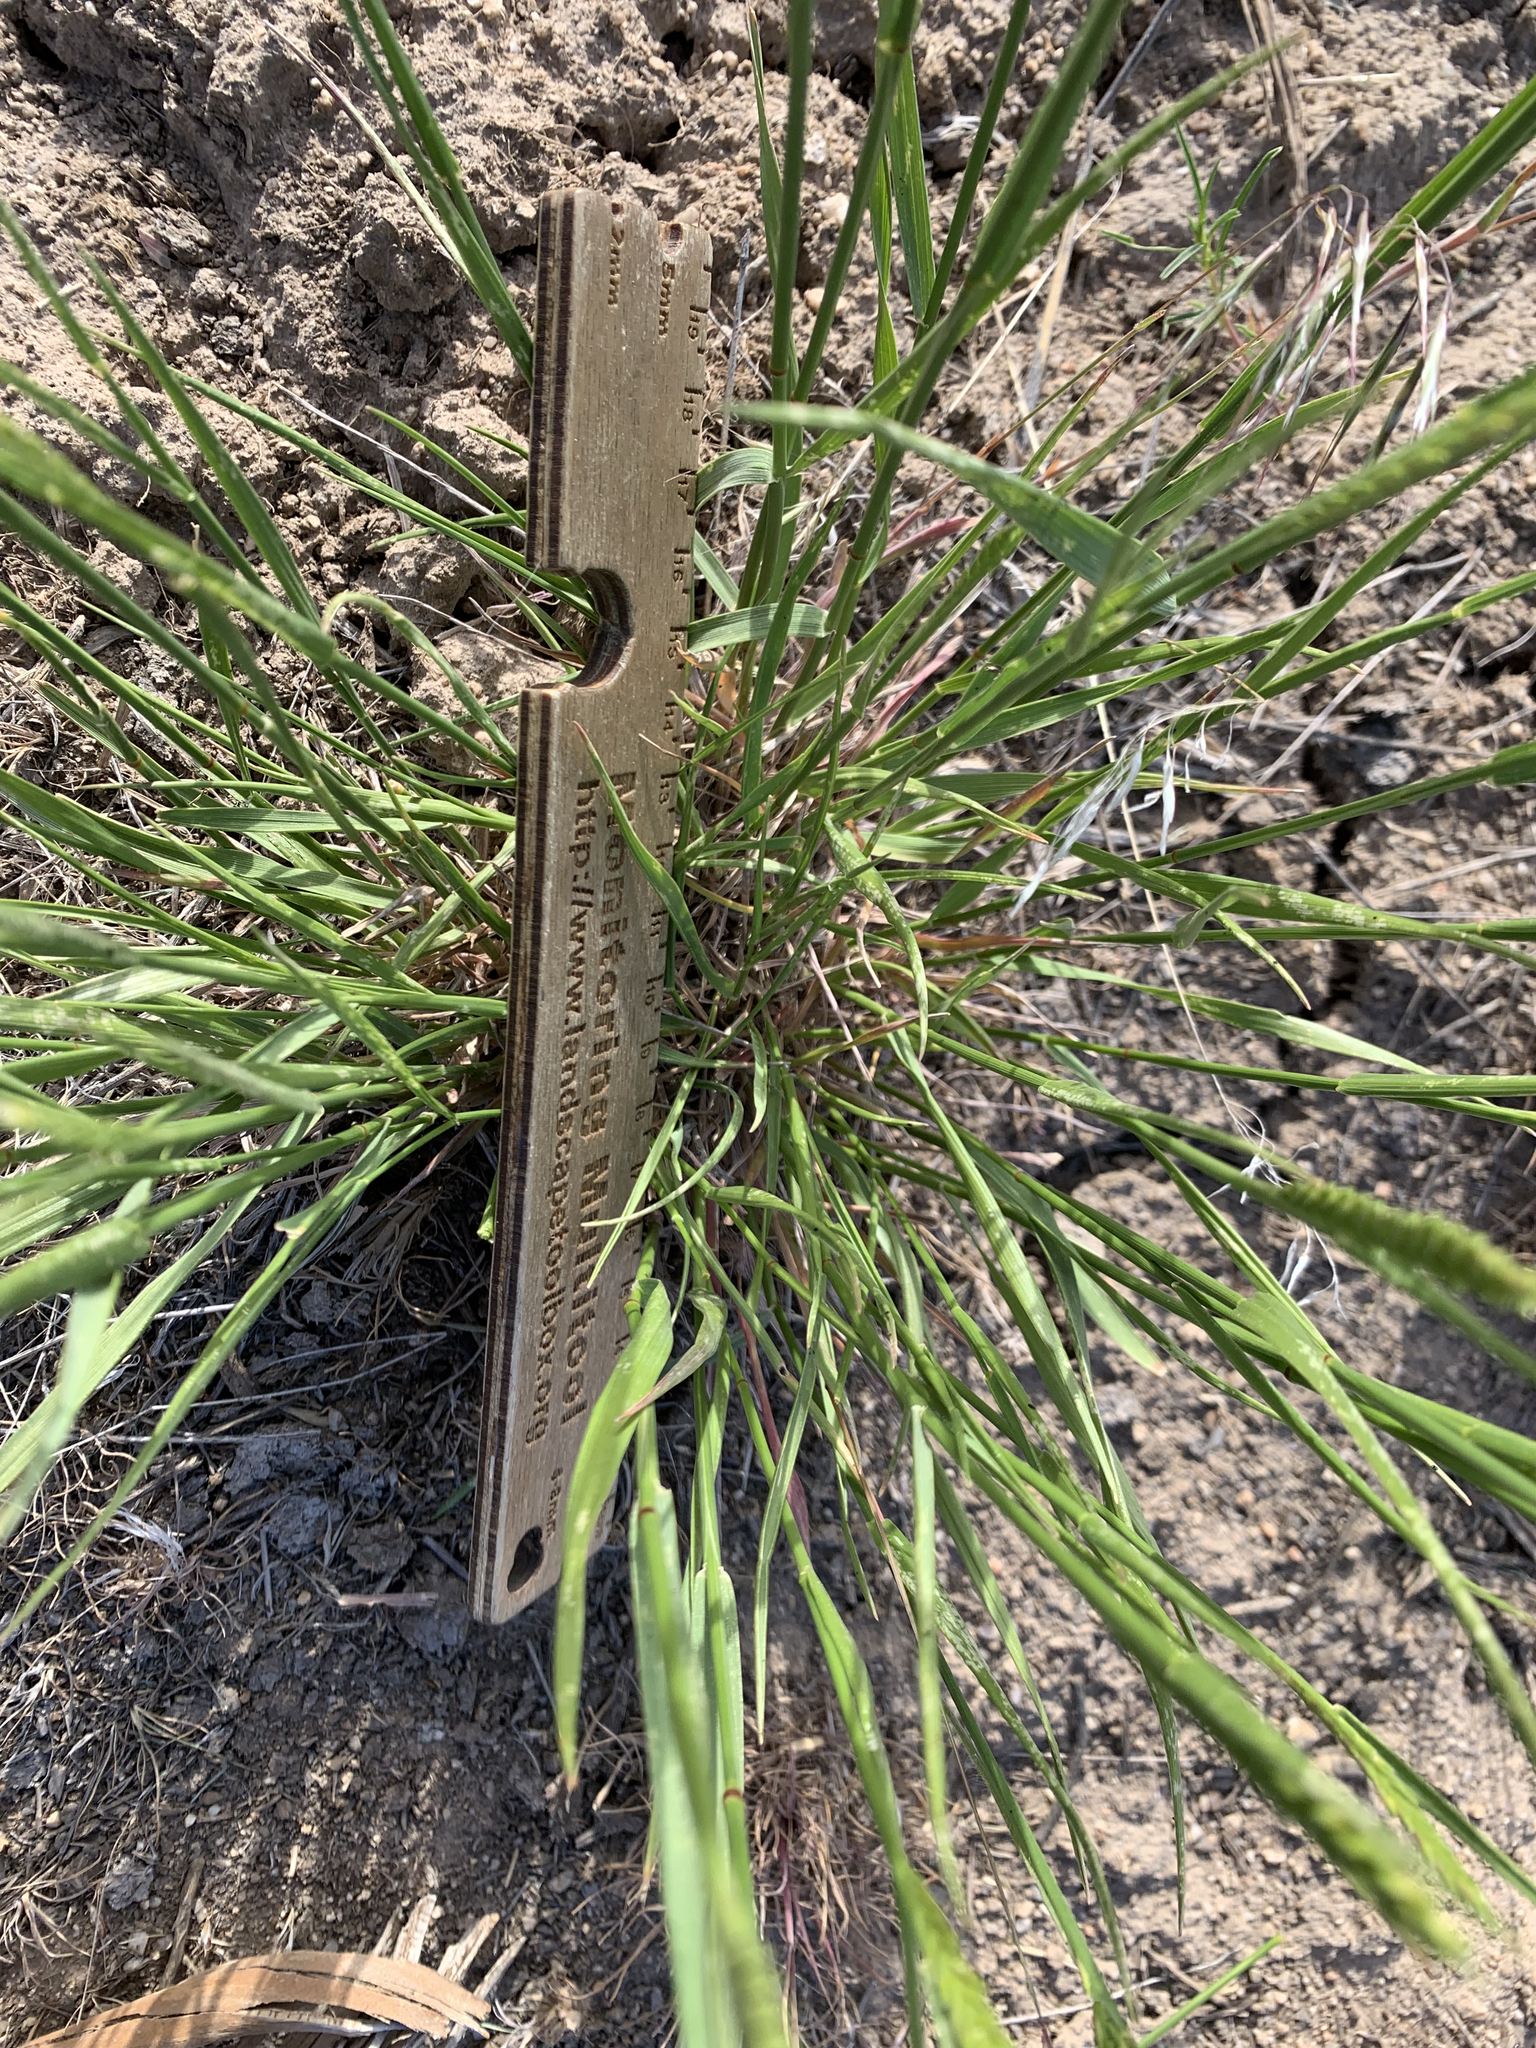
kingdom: Plantae
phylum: Tracheophyta
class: Liliopsida
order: Poales
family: Poaceae
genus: Agropyron
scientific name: Agropyron cristatum
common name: Crested wheatgrass
